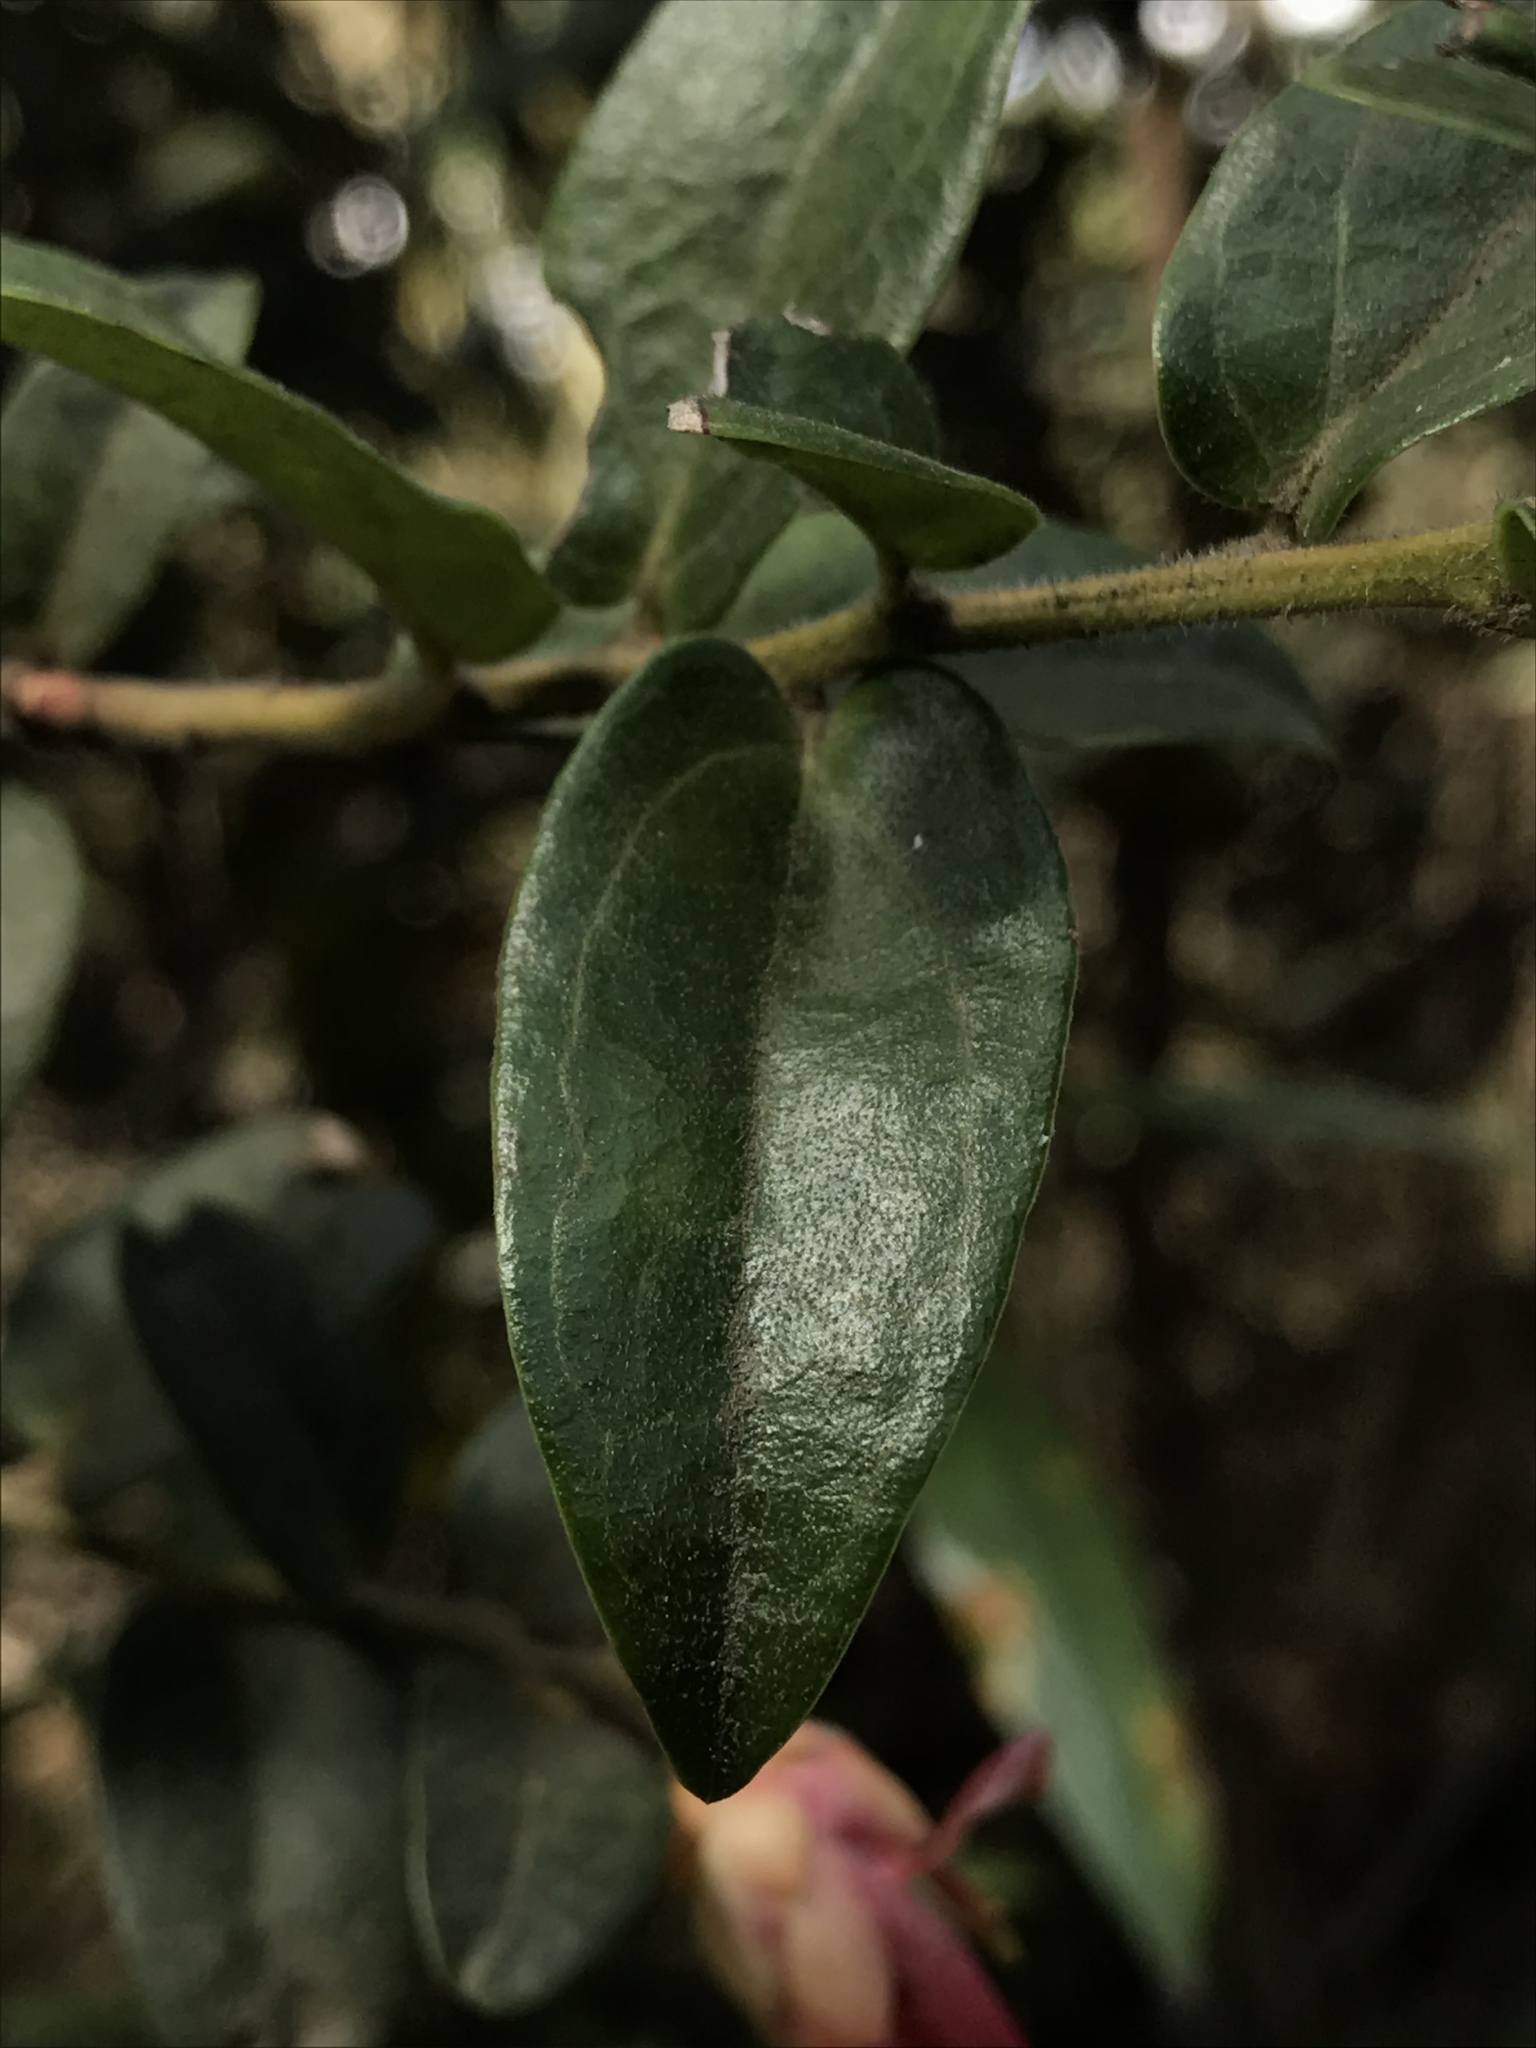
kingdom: Plantae
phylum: Tracheophyta
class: Magnoliopsida
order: Ericales
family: Ericaceae
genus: Cavendishia
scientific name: Cavendishia bracteata
